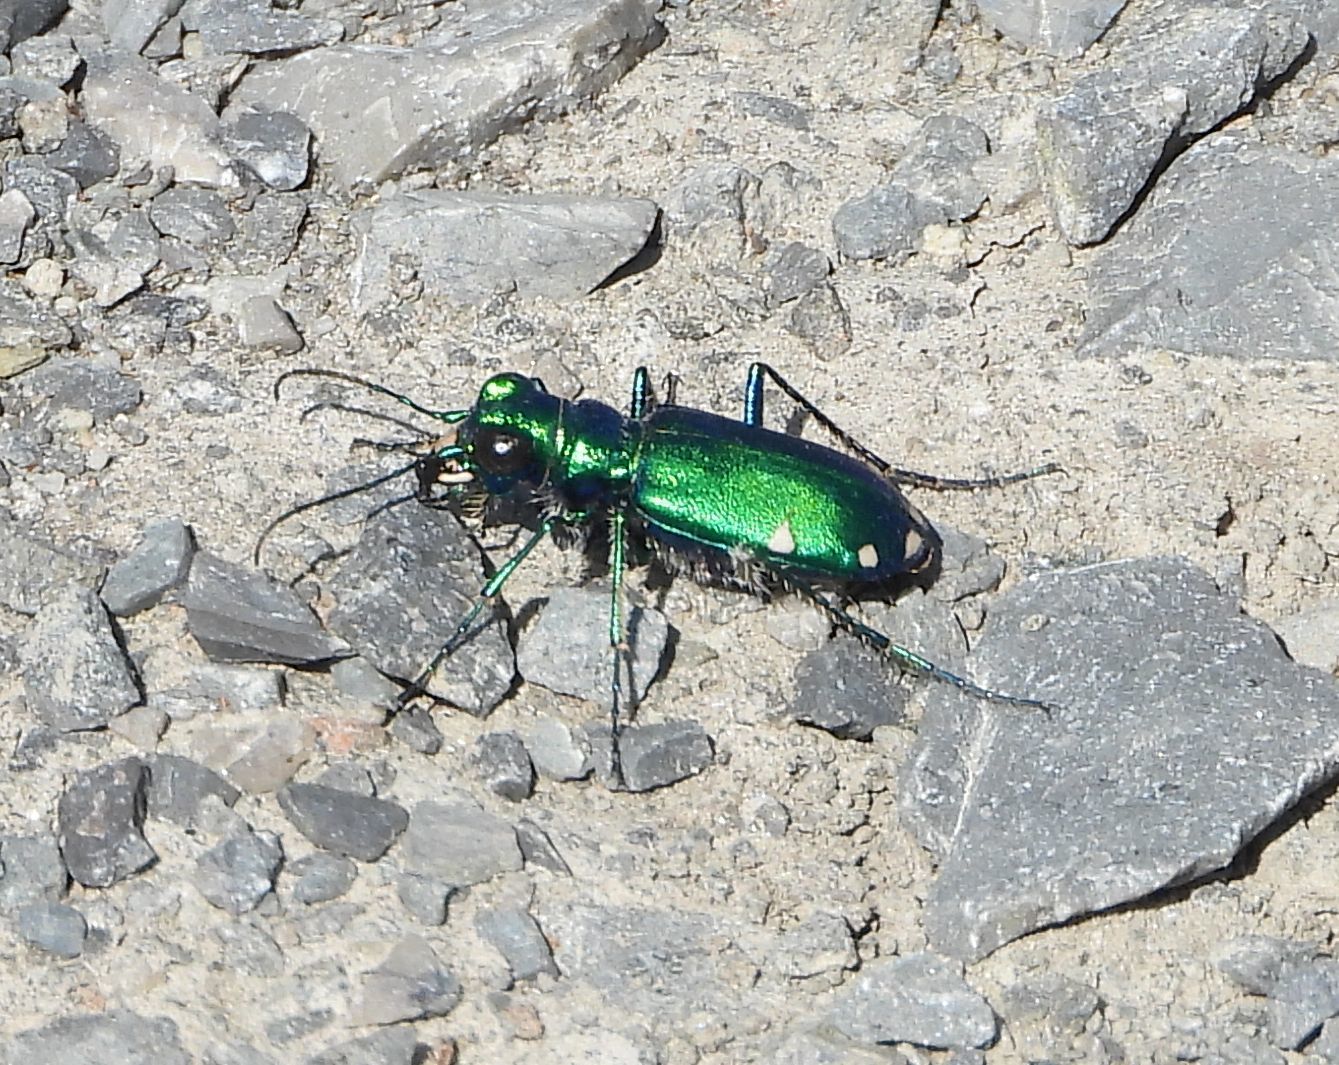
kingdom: Animalia
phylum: Arthropoda
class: Insecta
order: Coleoptera
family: Carabidae
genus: Cicindela
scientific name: Cicindela sexguttata
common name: Six-spotted tiger beetle
